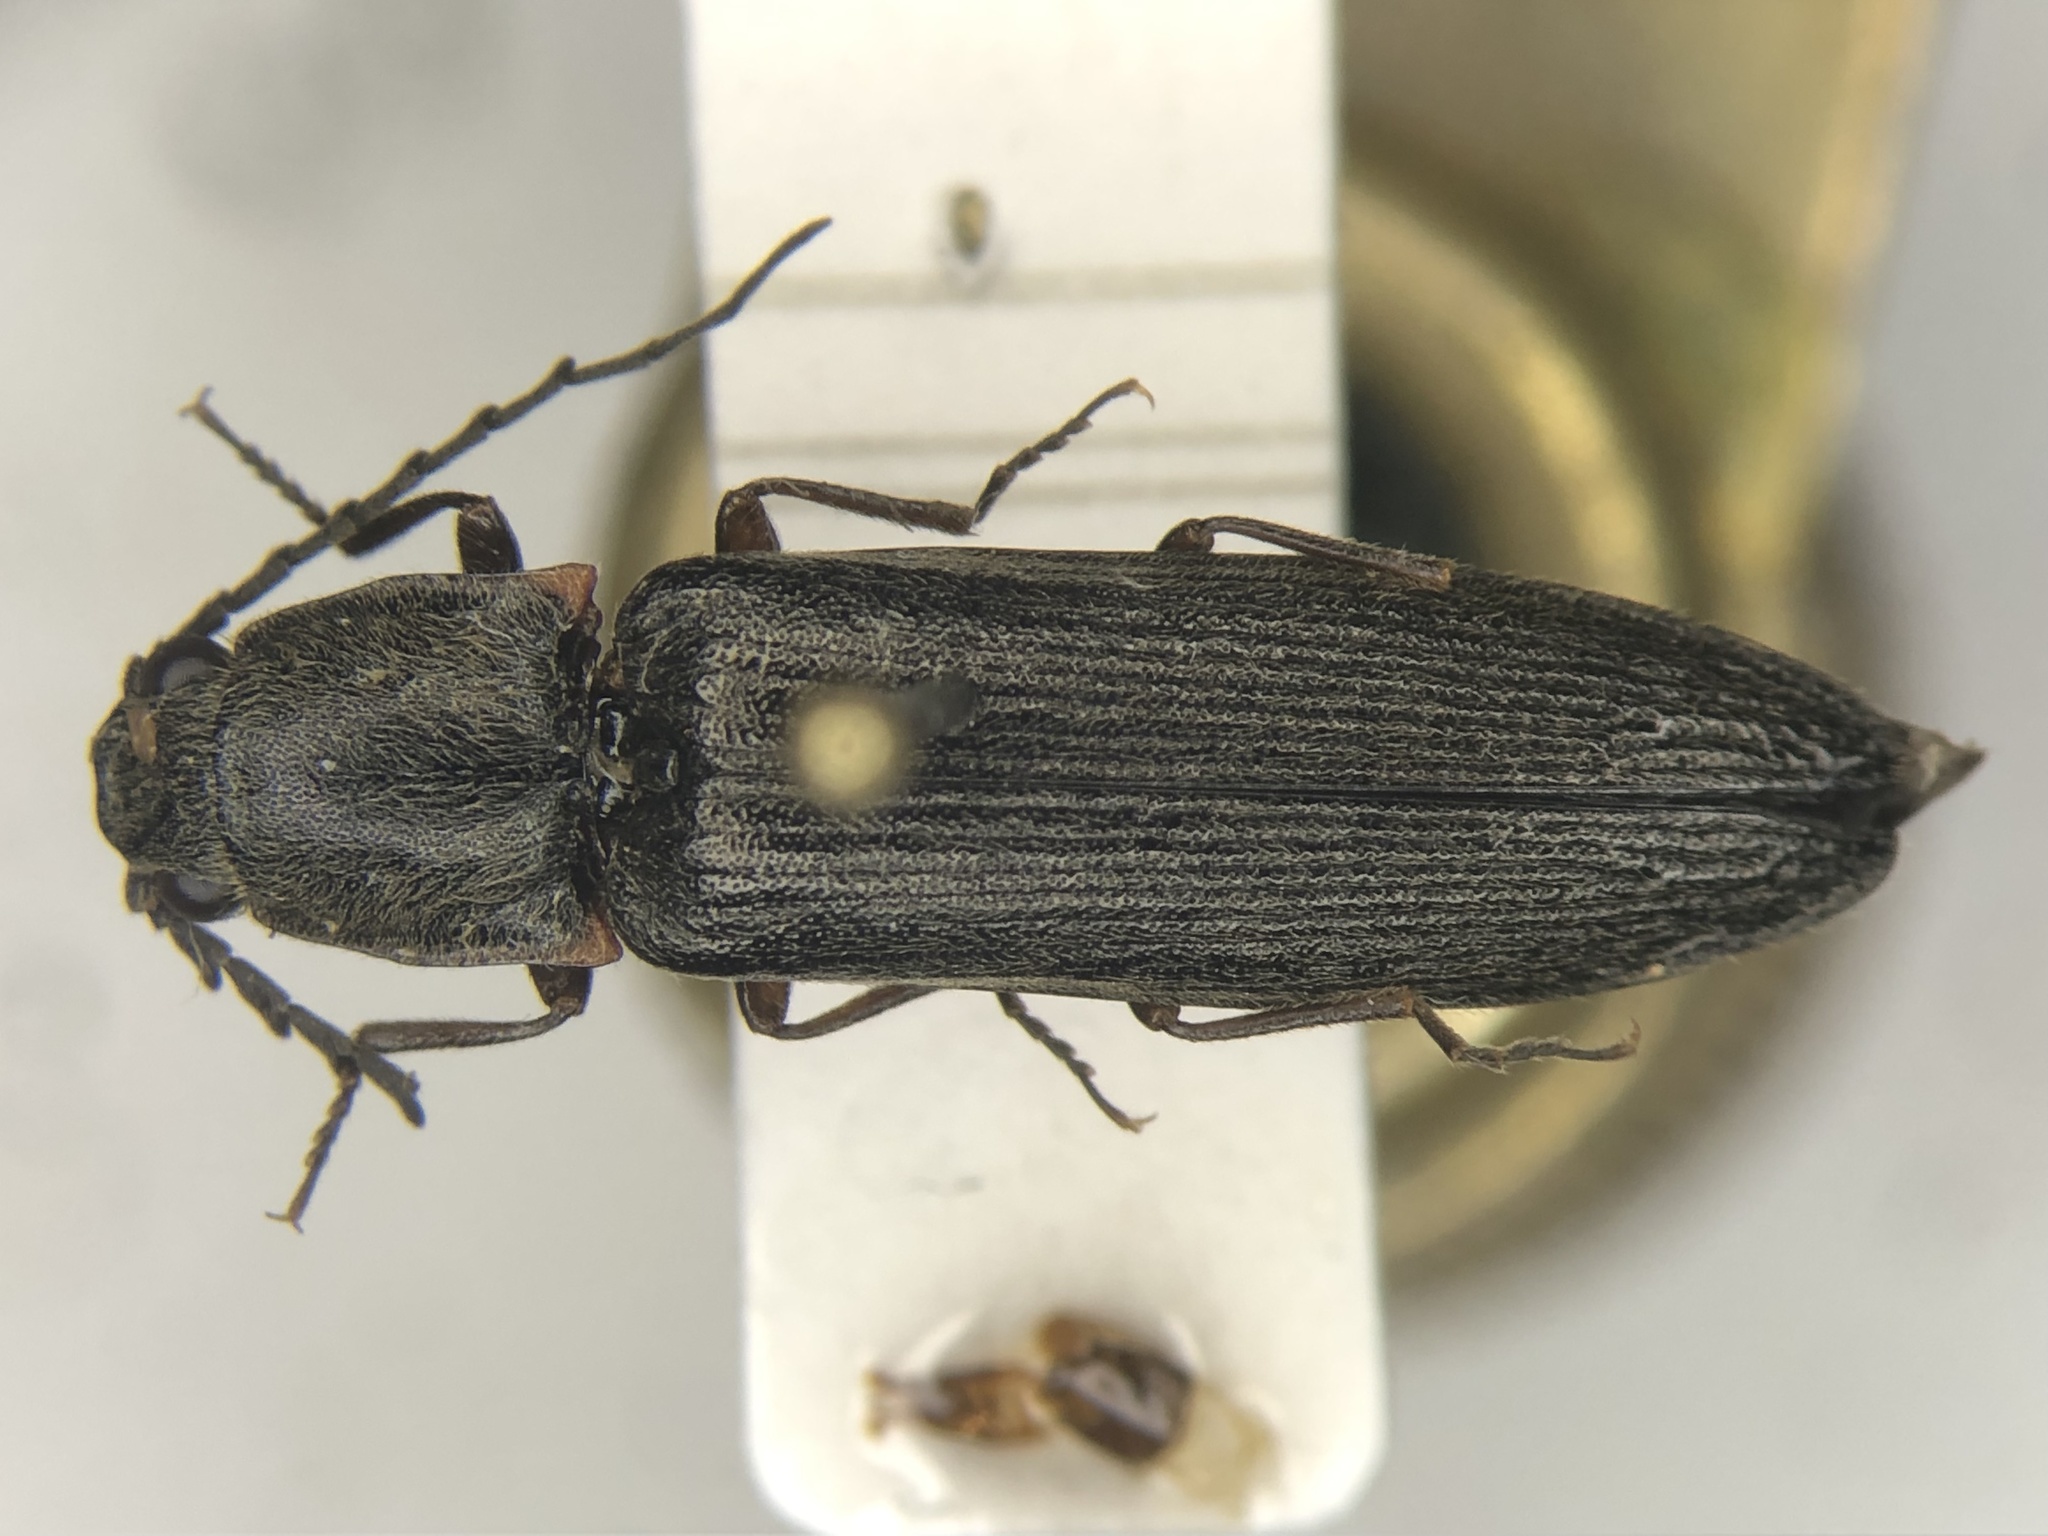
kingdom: Animalia
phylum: Arthropoda
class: Insecta
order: Coleoptera
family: Elateridae
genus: Athous
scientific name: Athous productus
